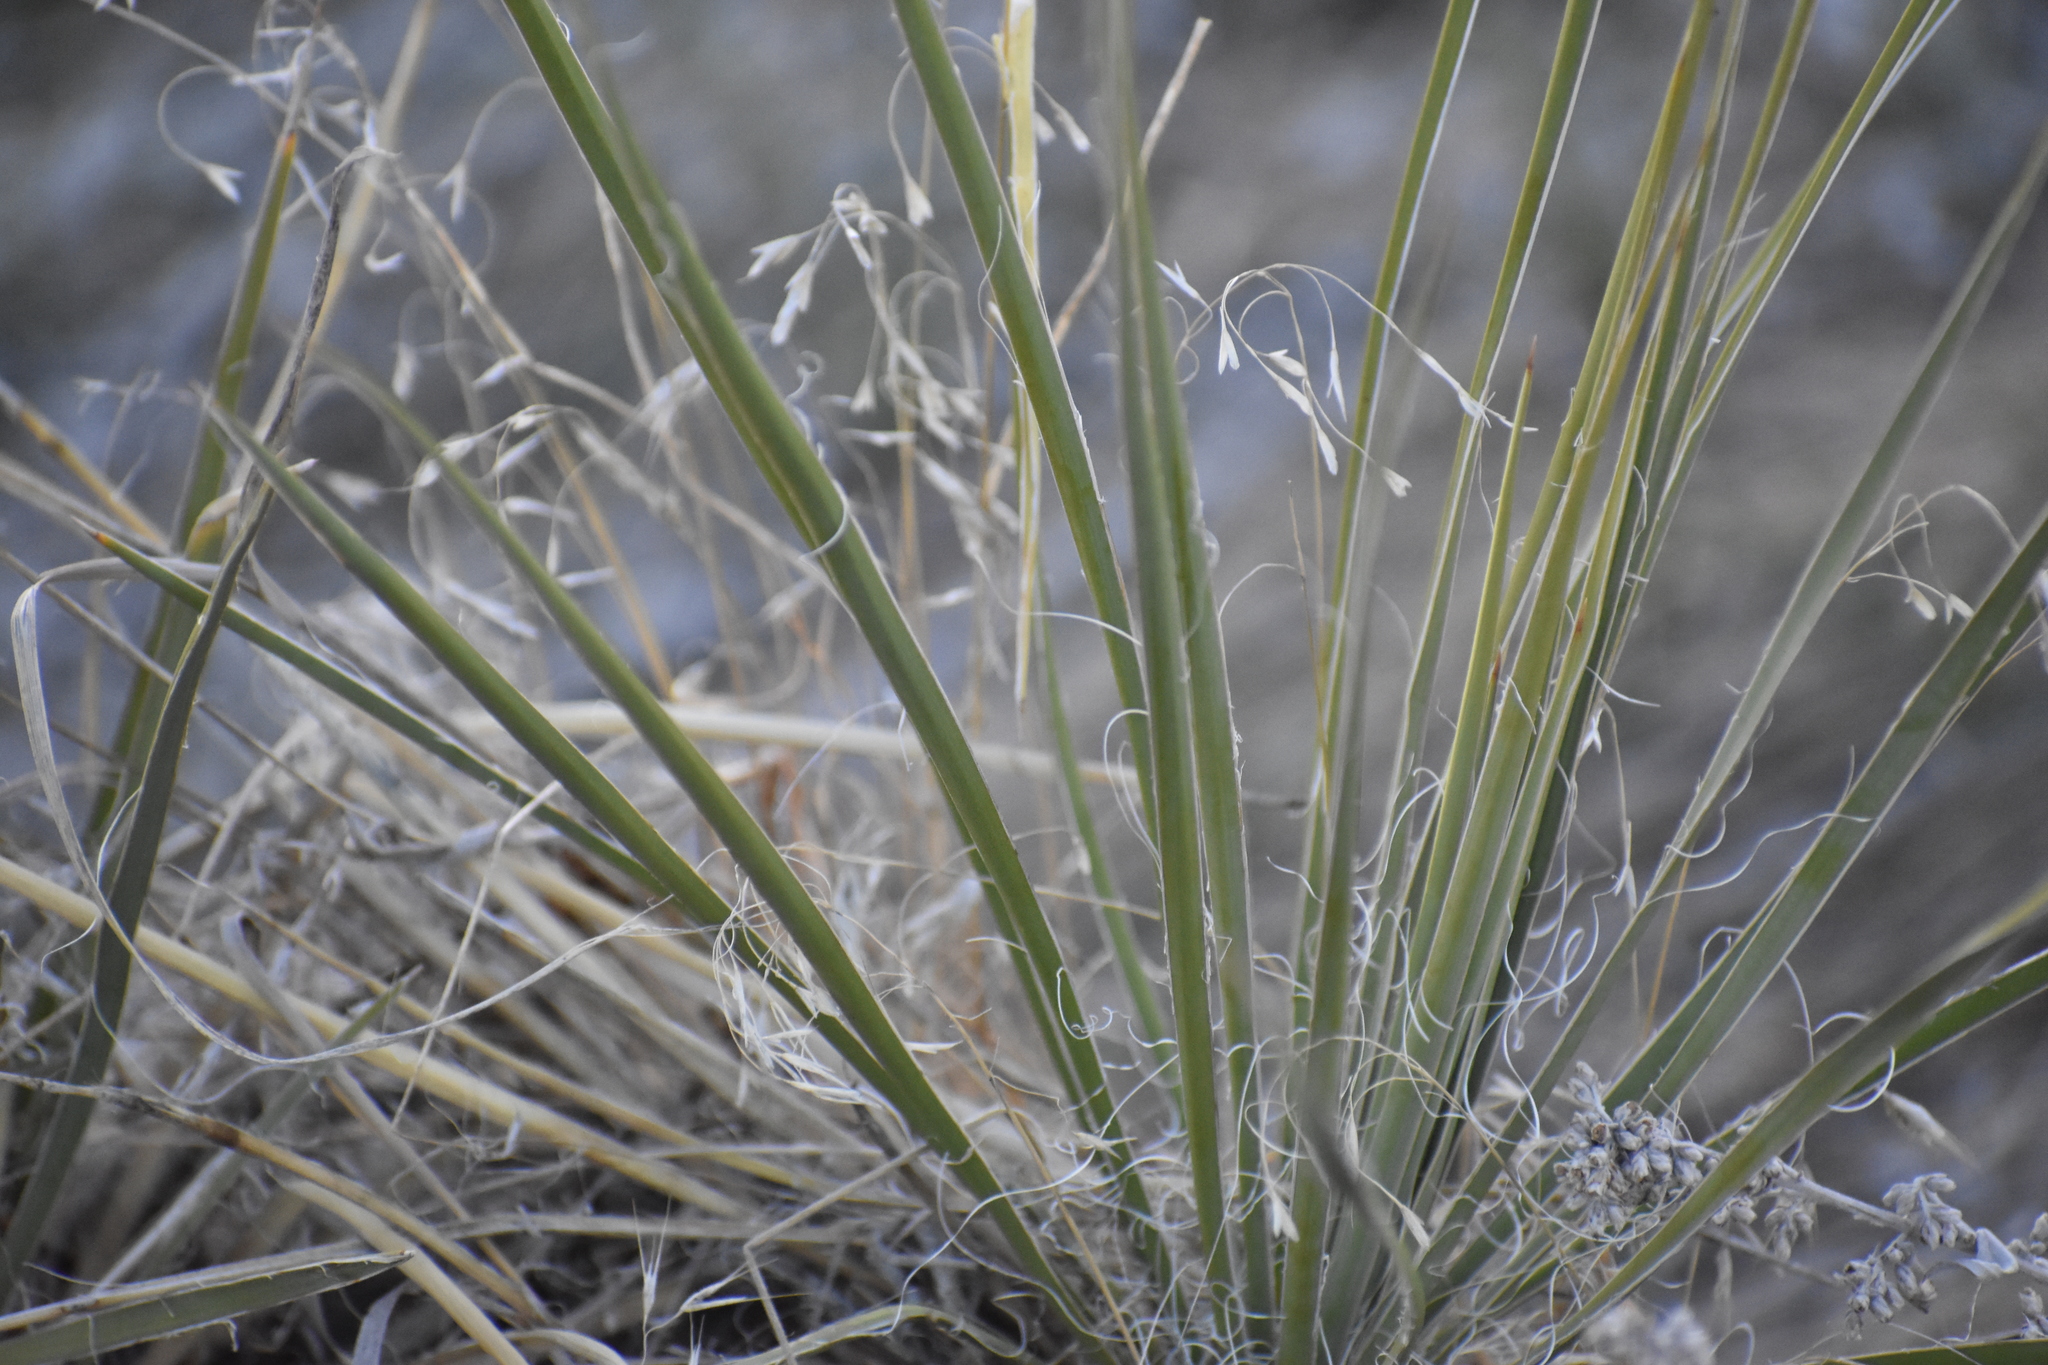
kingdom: Plantae
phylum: Tracheophyta
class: Liliopsida
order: Asparagales
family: Asparagaceae
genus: Yucca
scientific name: Yucca glauca
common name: Great plains yucca
